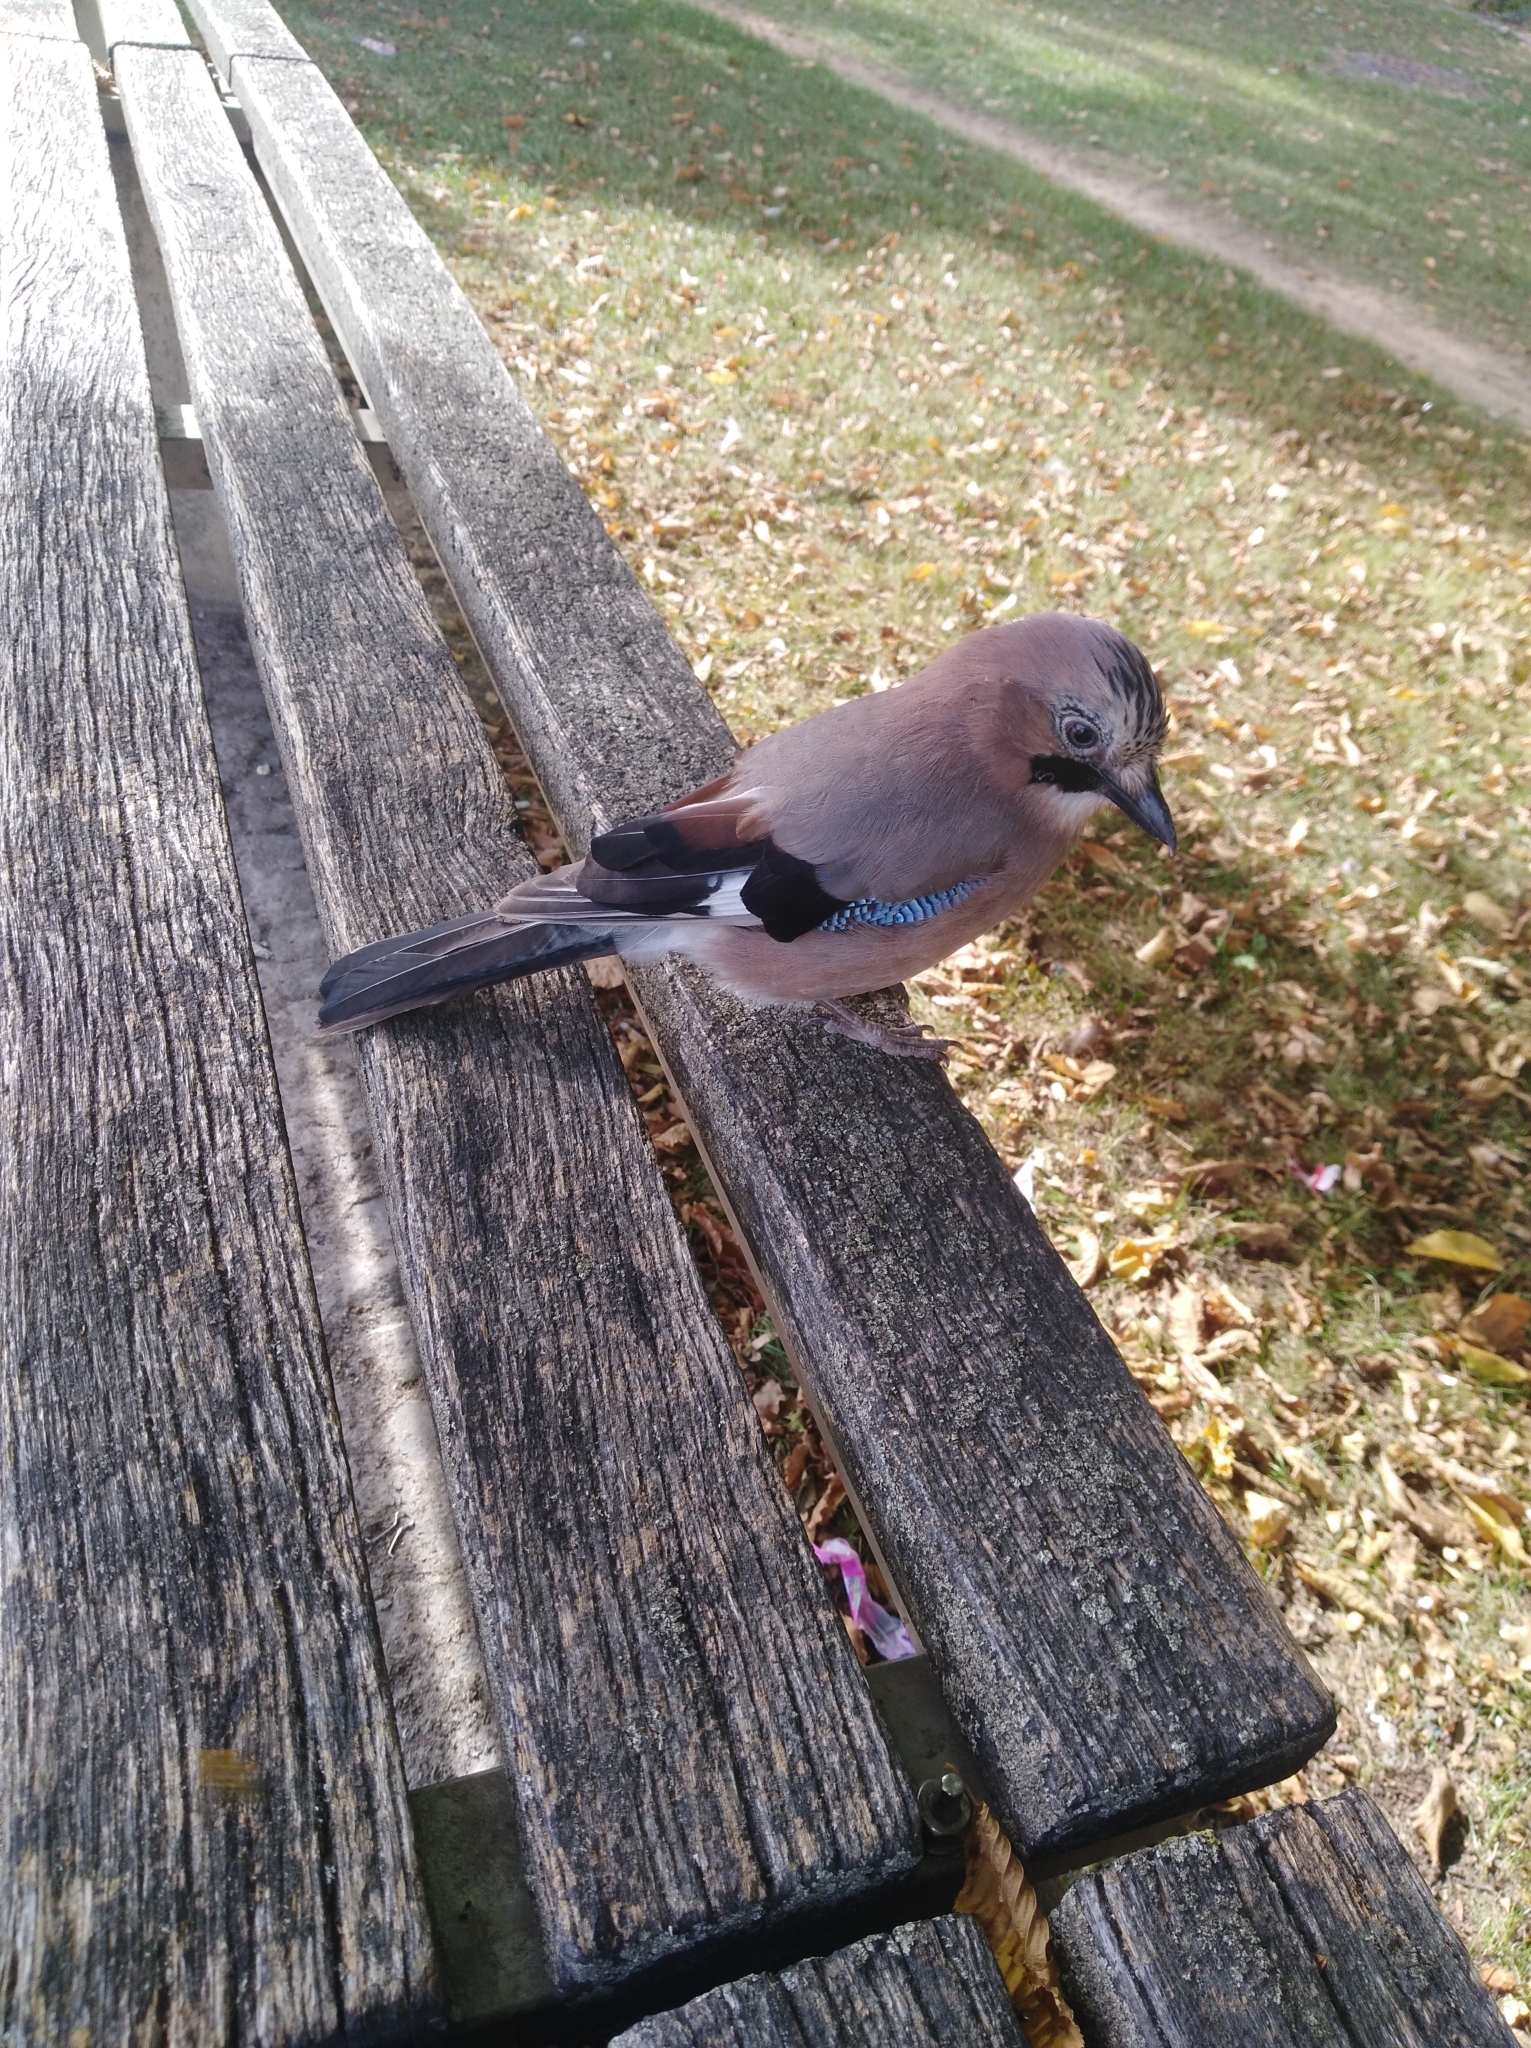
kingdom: Animalia
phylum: Chordata
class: Aves
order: Passeriformes
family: Corvidae
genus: Garrulus
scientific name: Garrulus glandarius
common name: Eurasian jay
